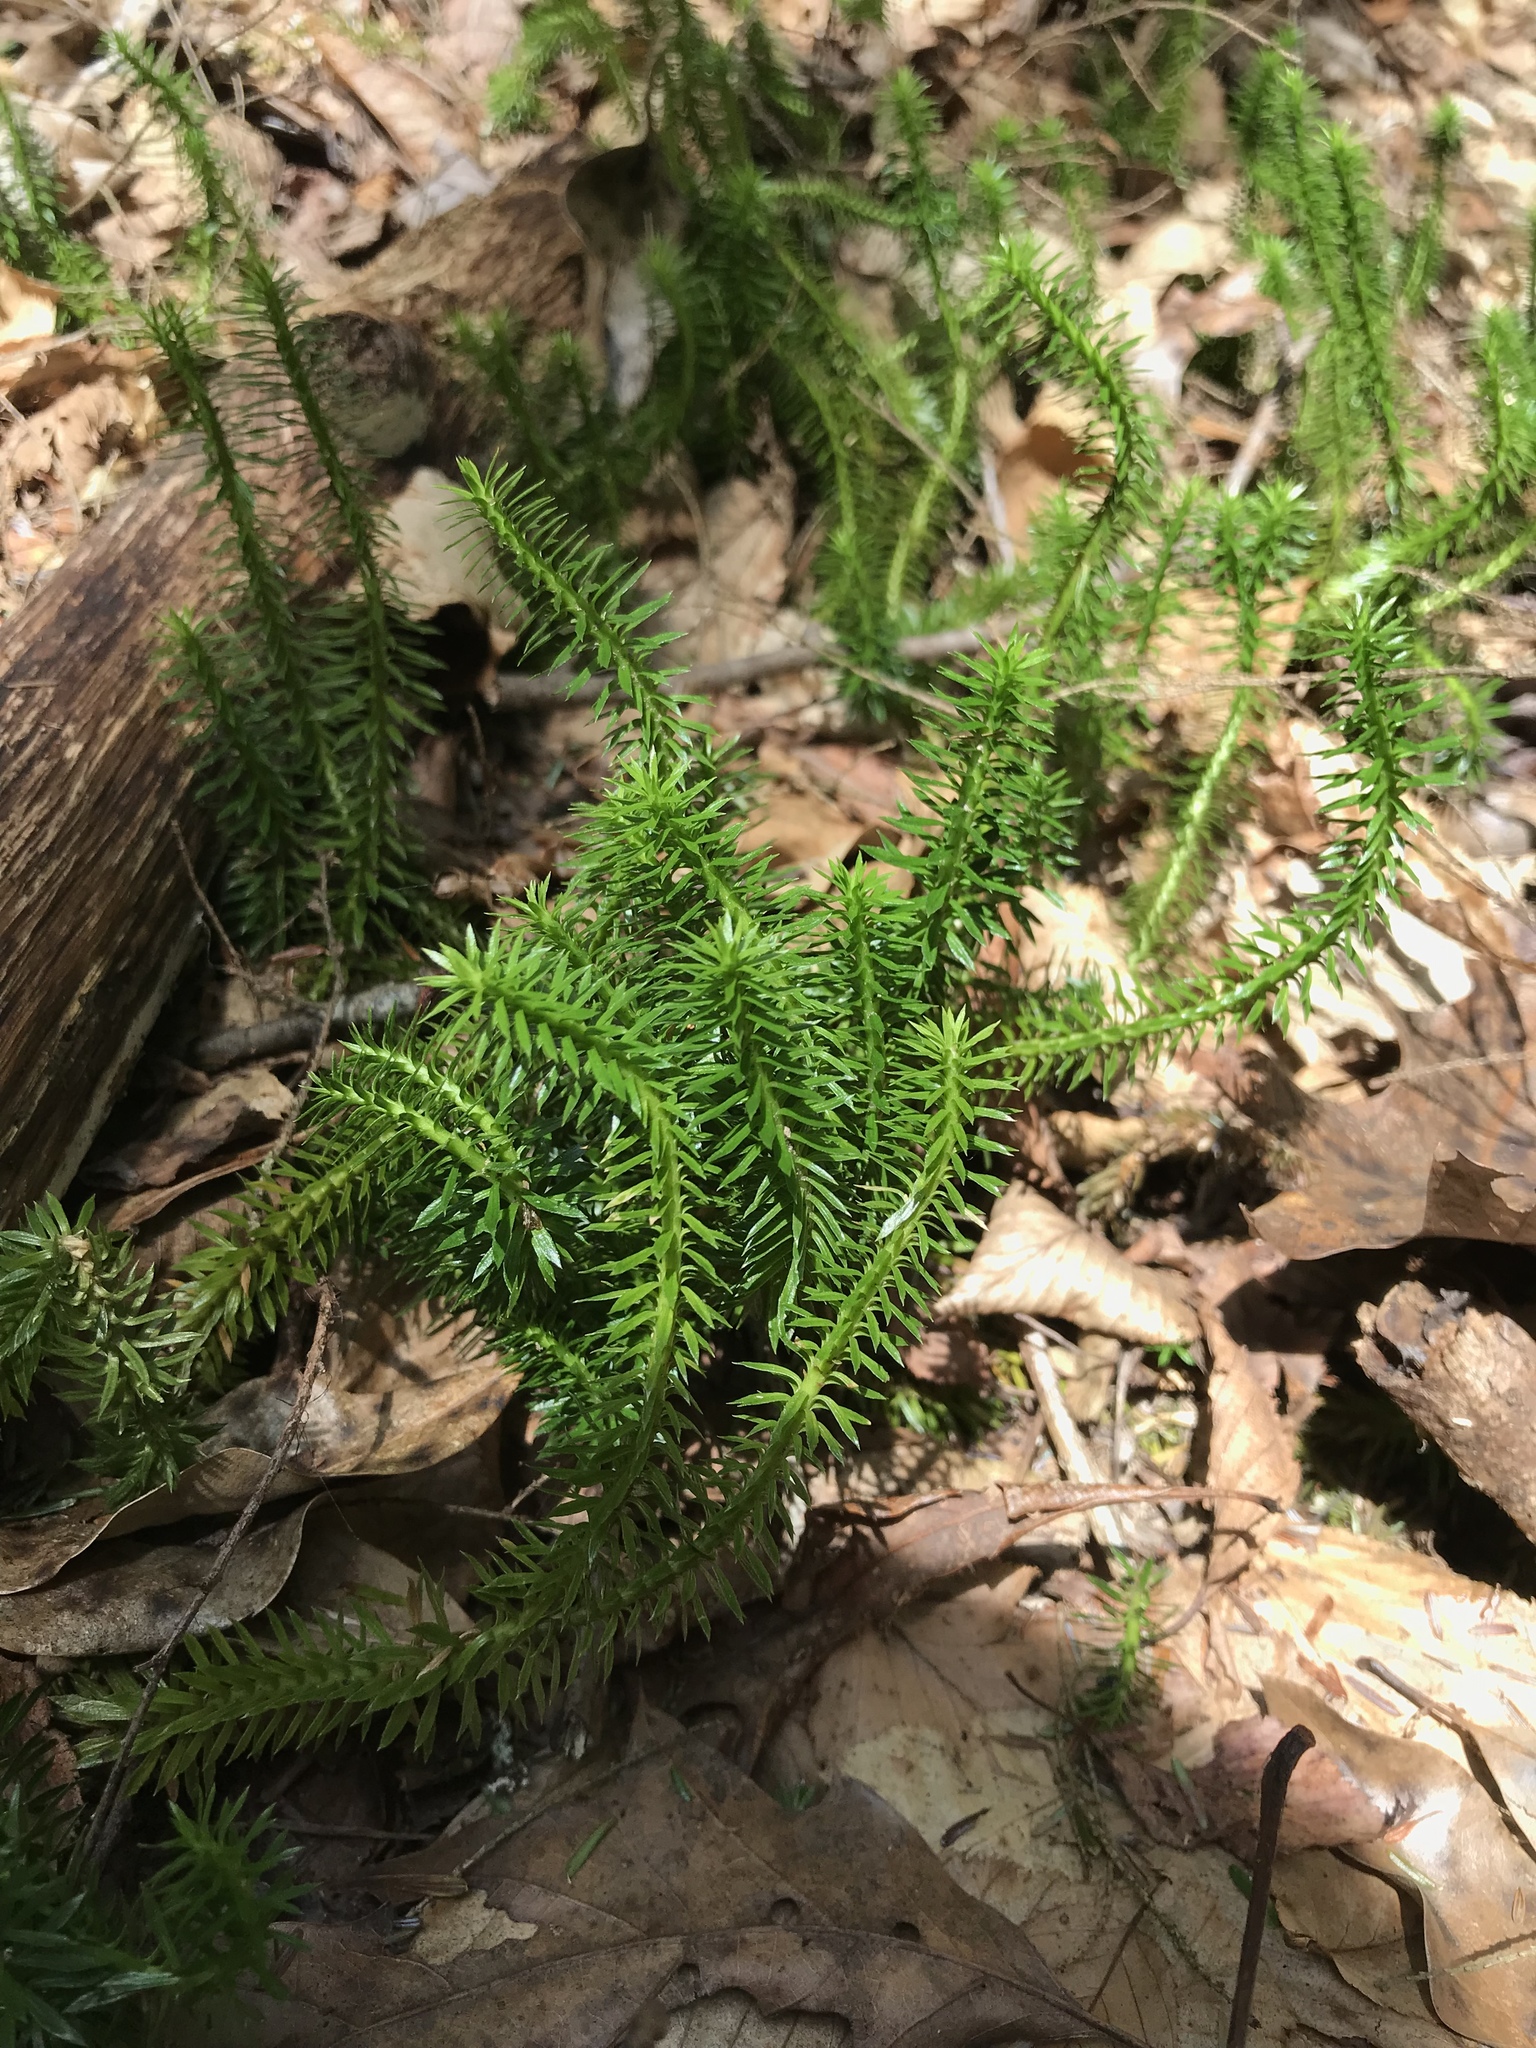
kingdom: Plantae
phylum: Tracheophyta
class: Lycopodiopsida
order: Lycopodiales
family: Lycopodiaceae
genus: Spinulum
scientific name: Spinulum annotinum
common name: Interrupted club-moss
